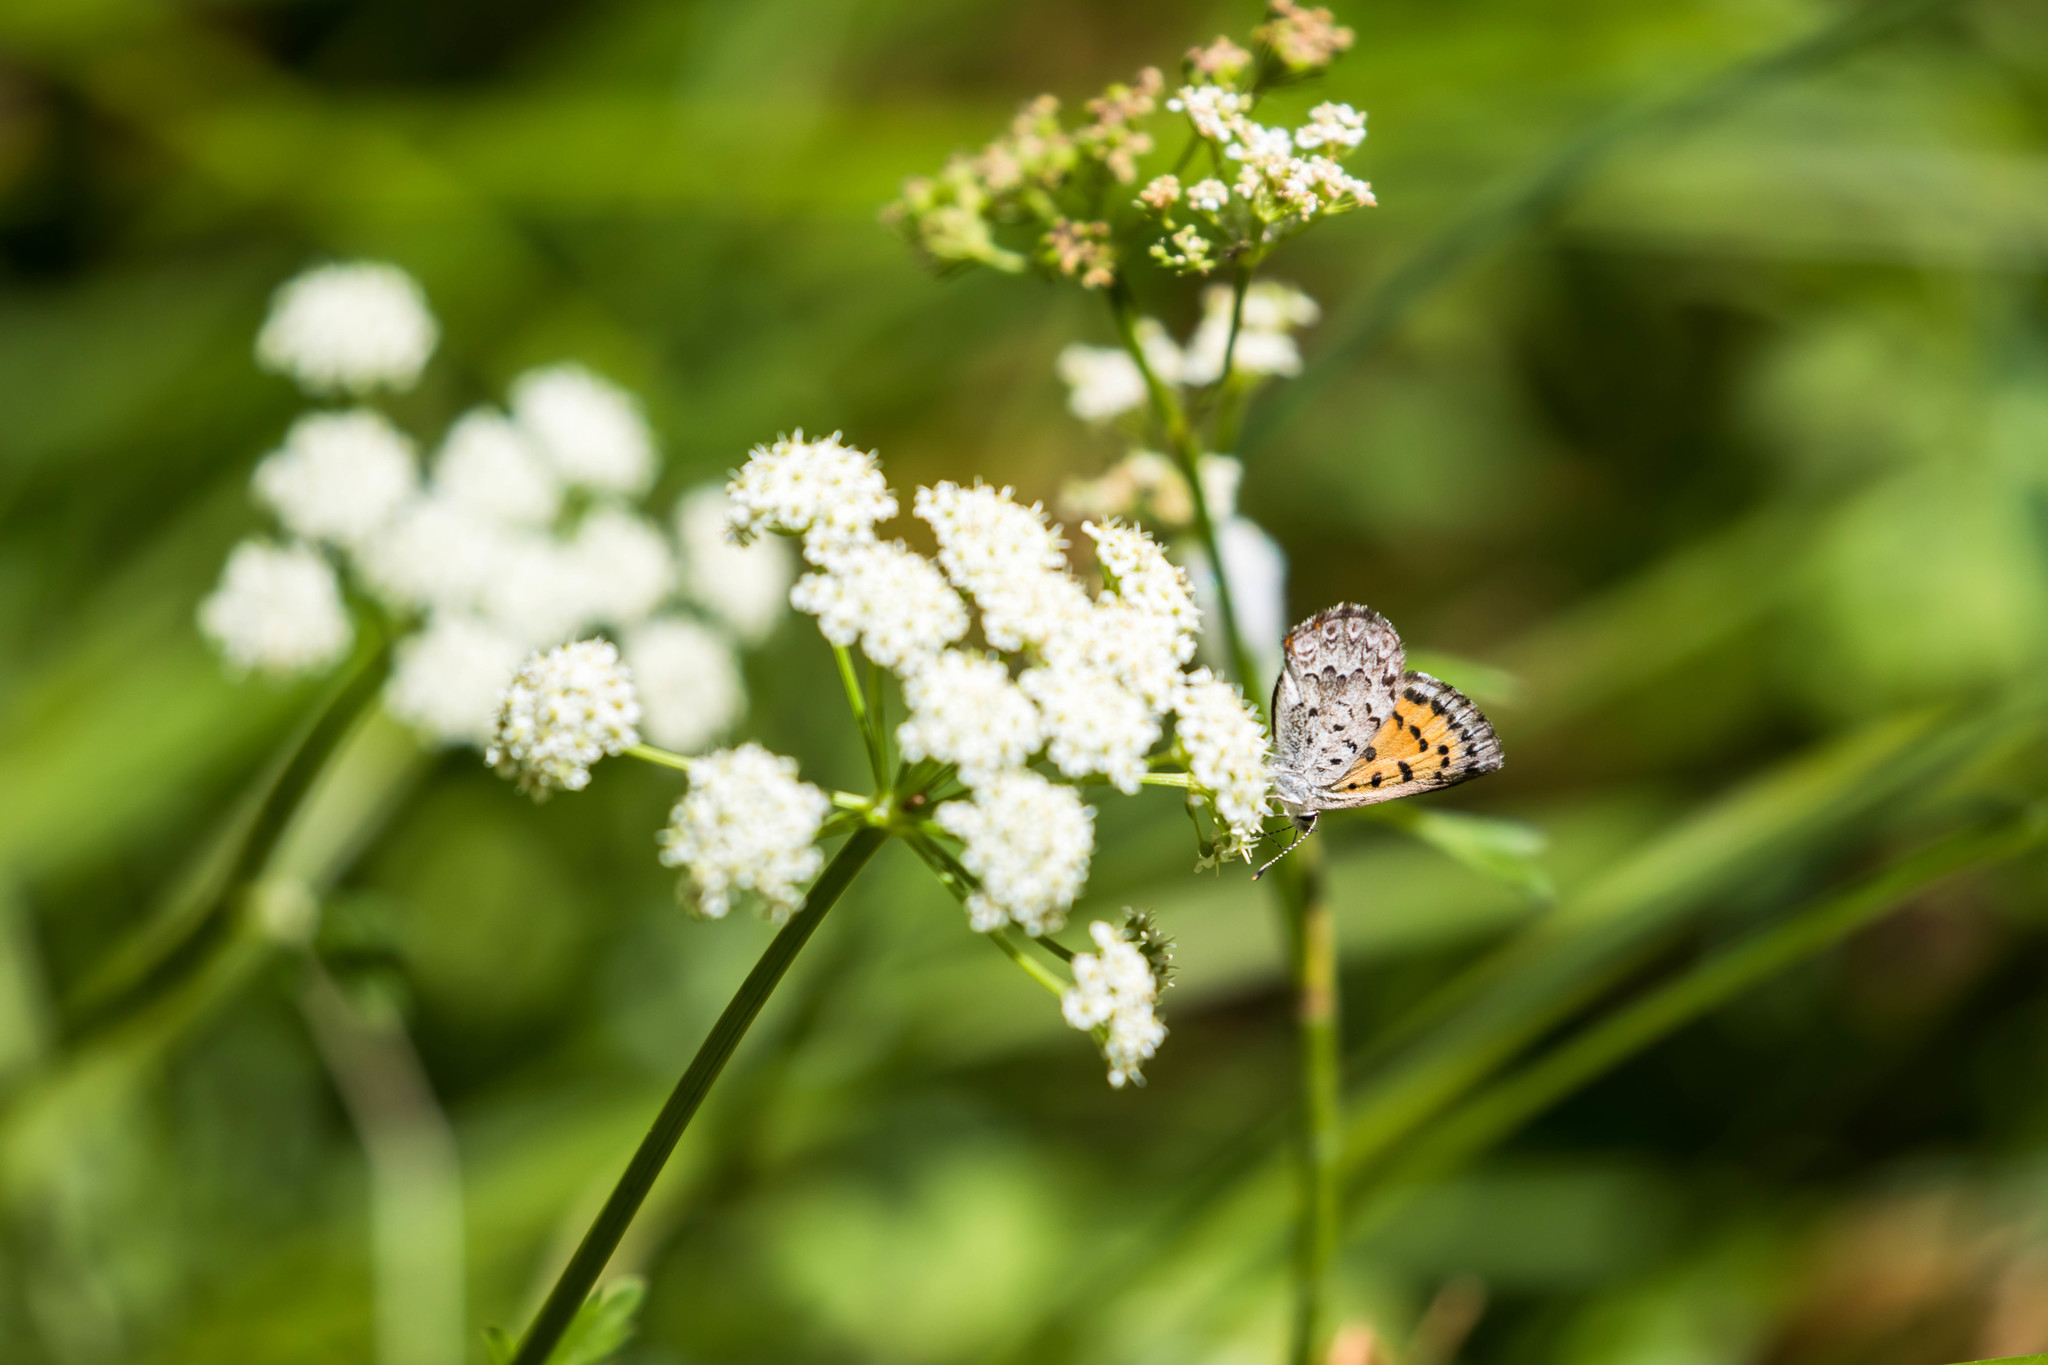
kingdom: Animalia
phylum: Arthropoda
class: Insecta
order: Lepidoptera
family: Lycaenidae
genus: Tharsalea
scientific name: Tharsalea mariposa
